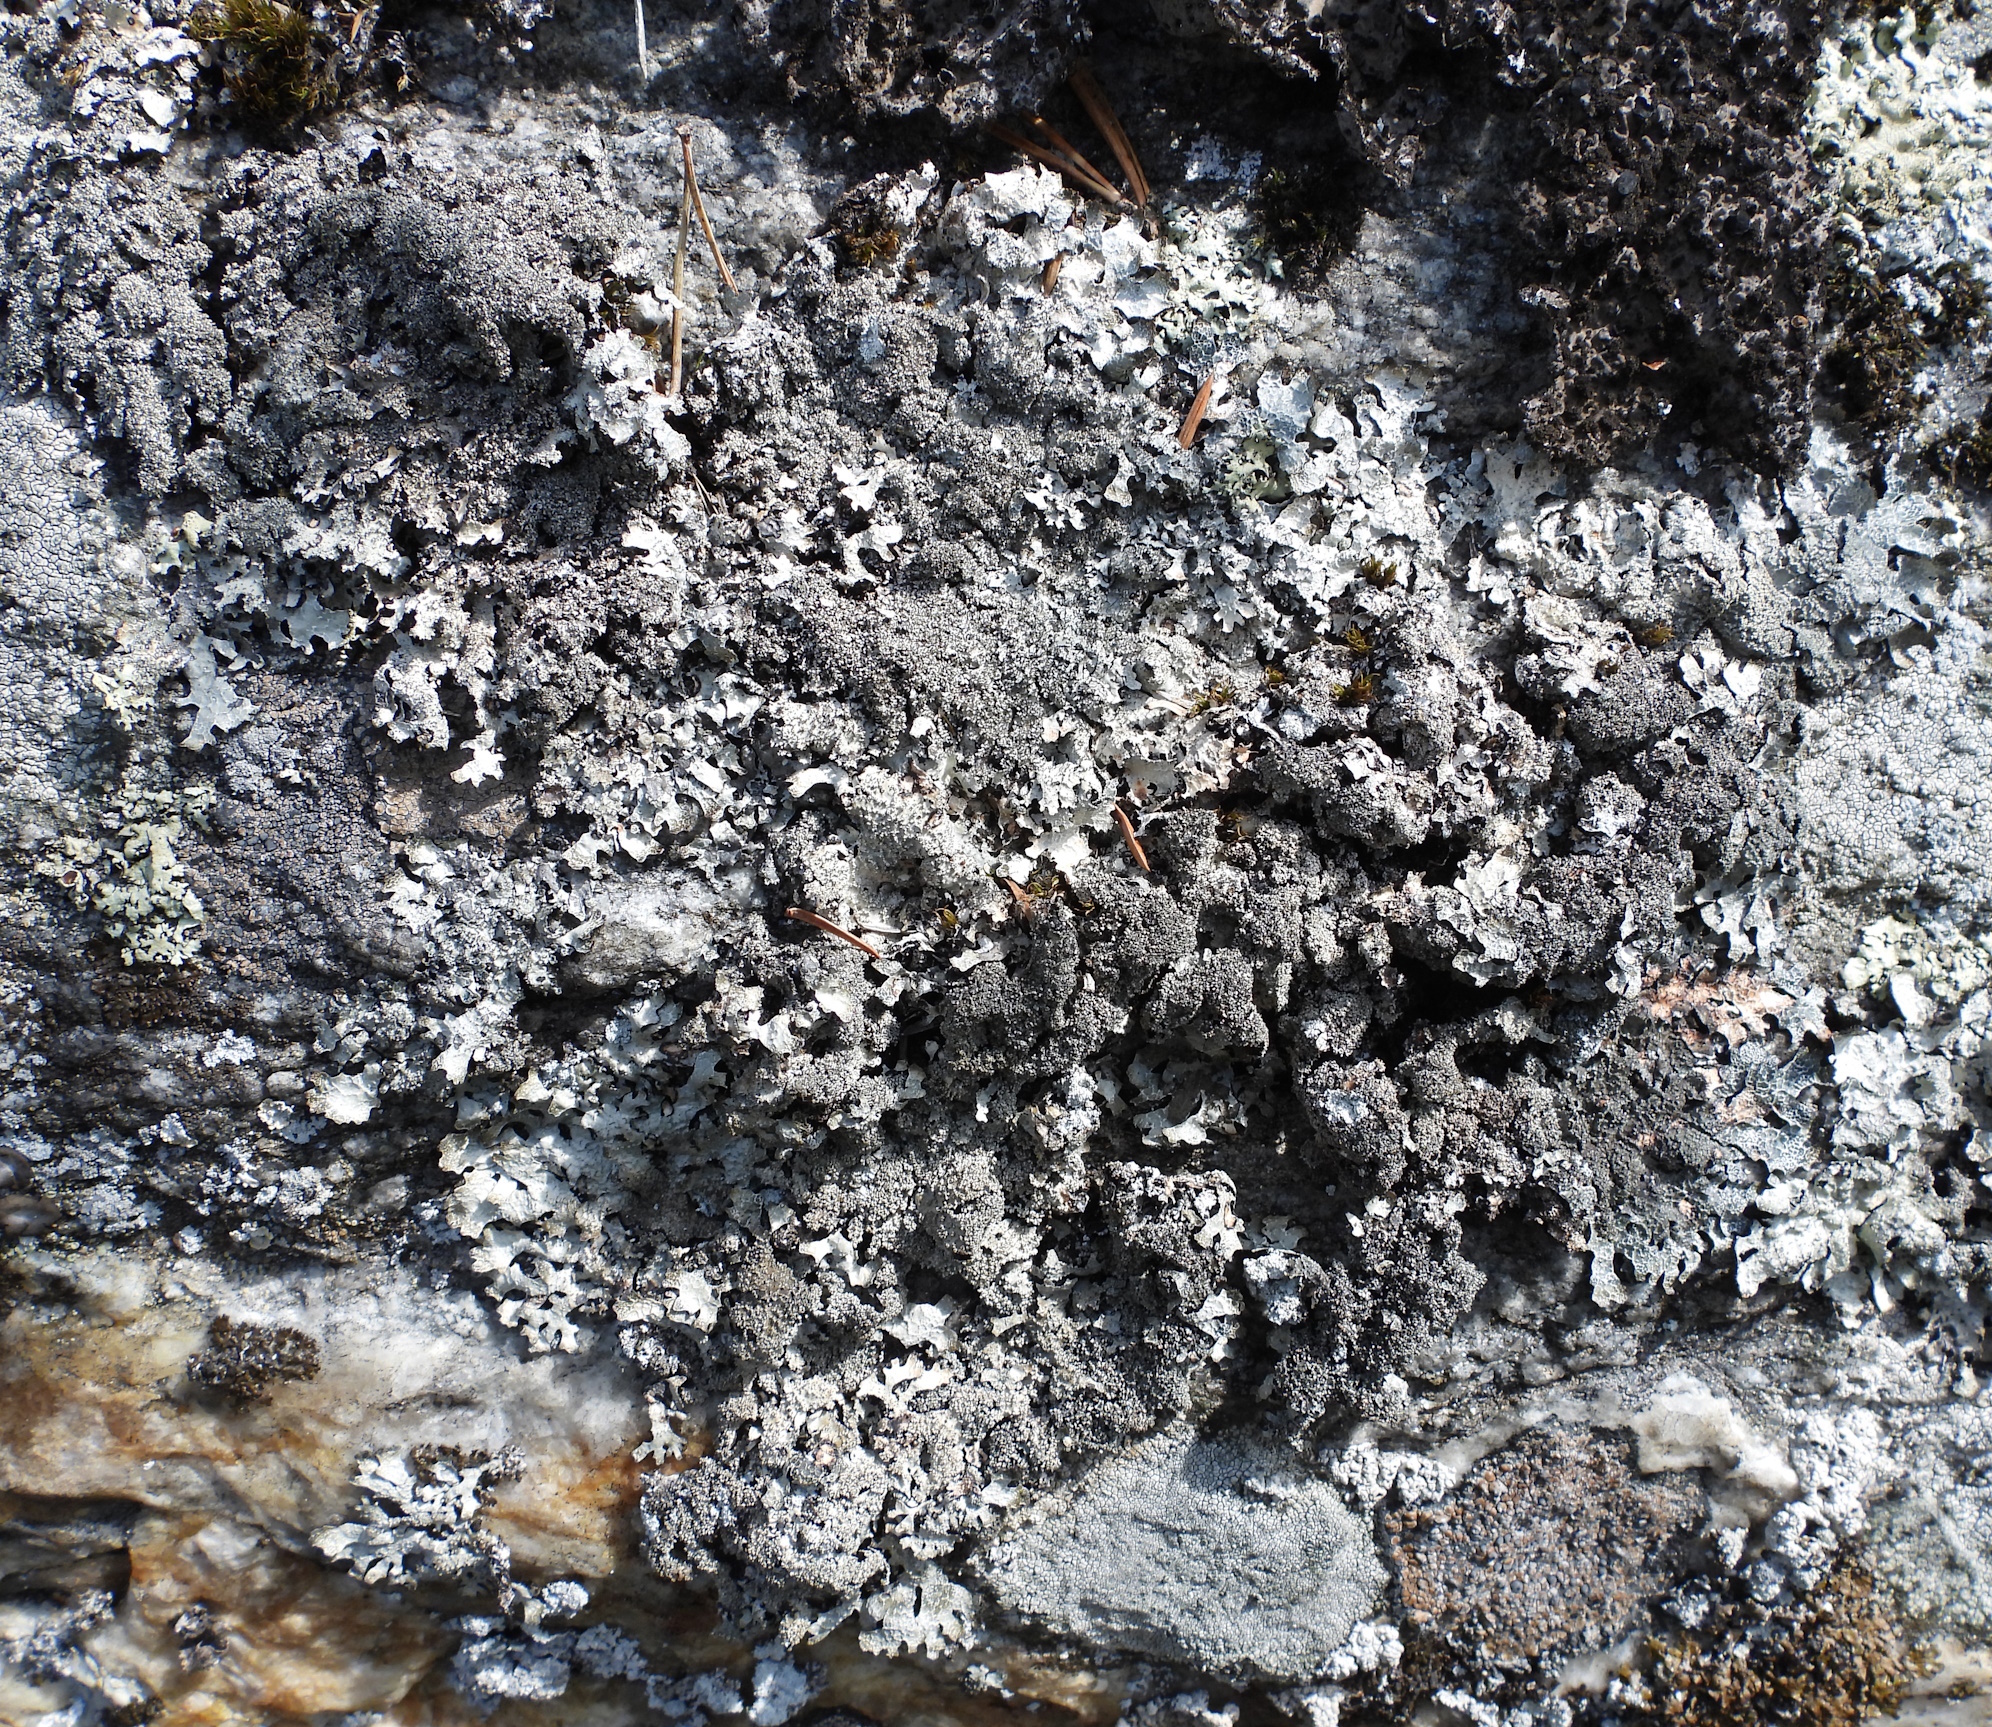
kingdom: Fungi
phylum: Ascomycota
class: Lecanoromycetes
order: Lecanorales
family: Parmeliaceae
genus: Parmelia
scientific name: Parmelia saxatilis
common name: Salted shield lichen
